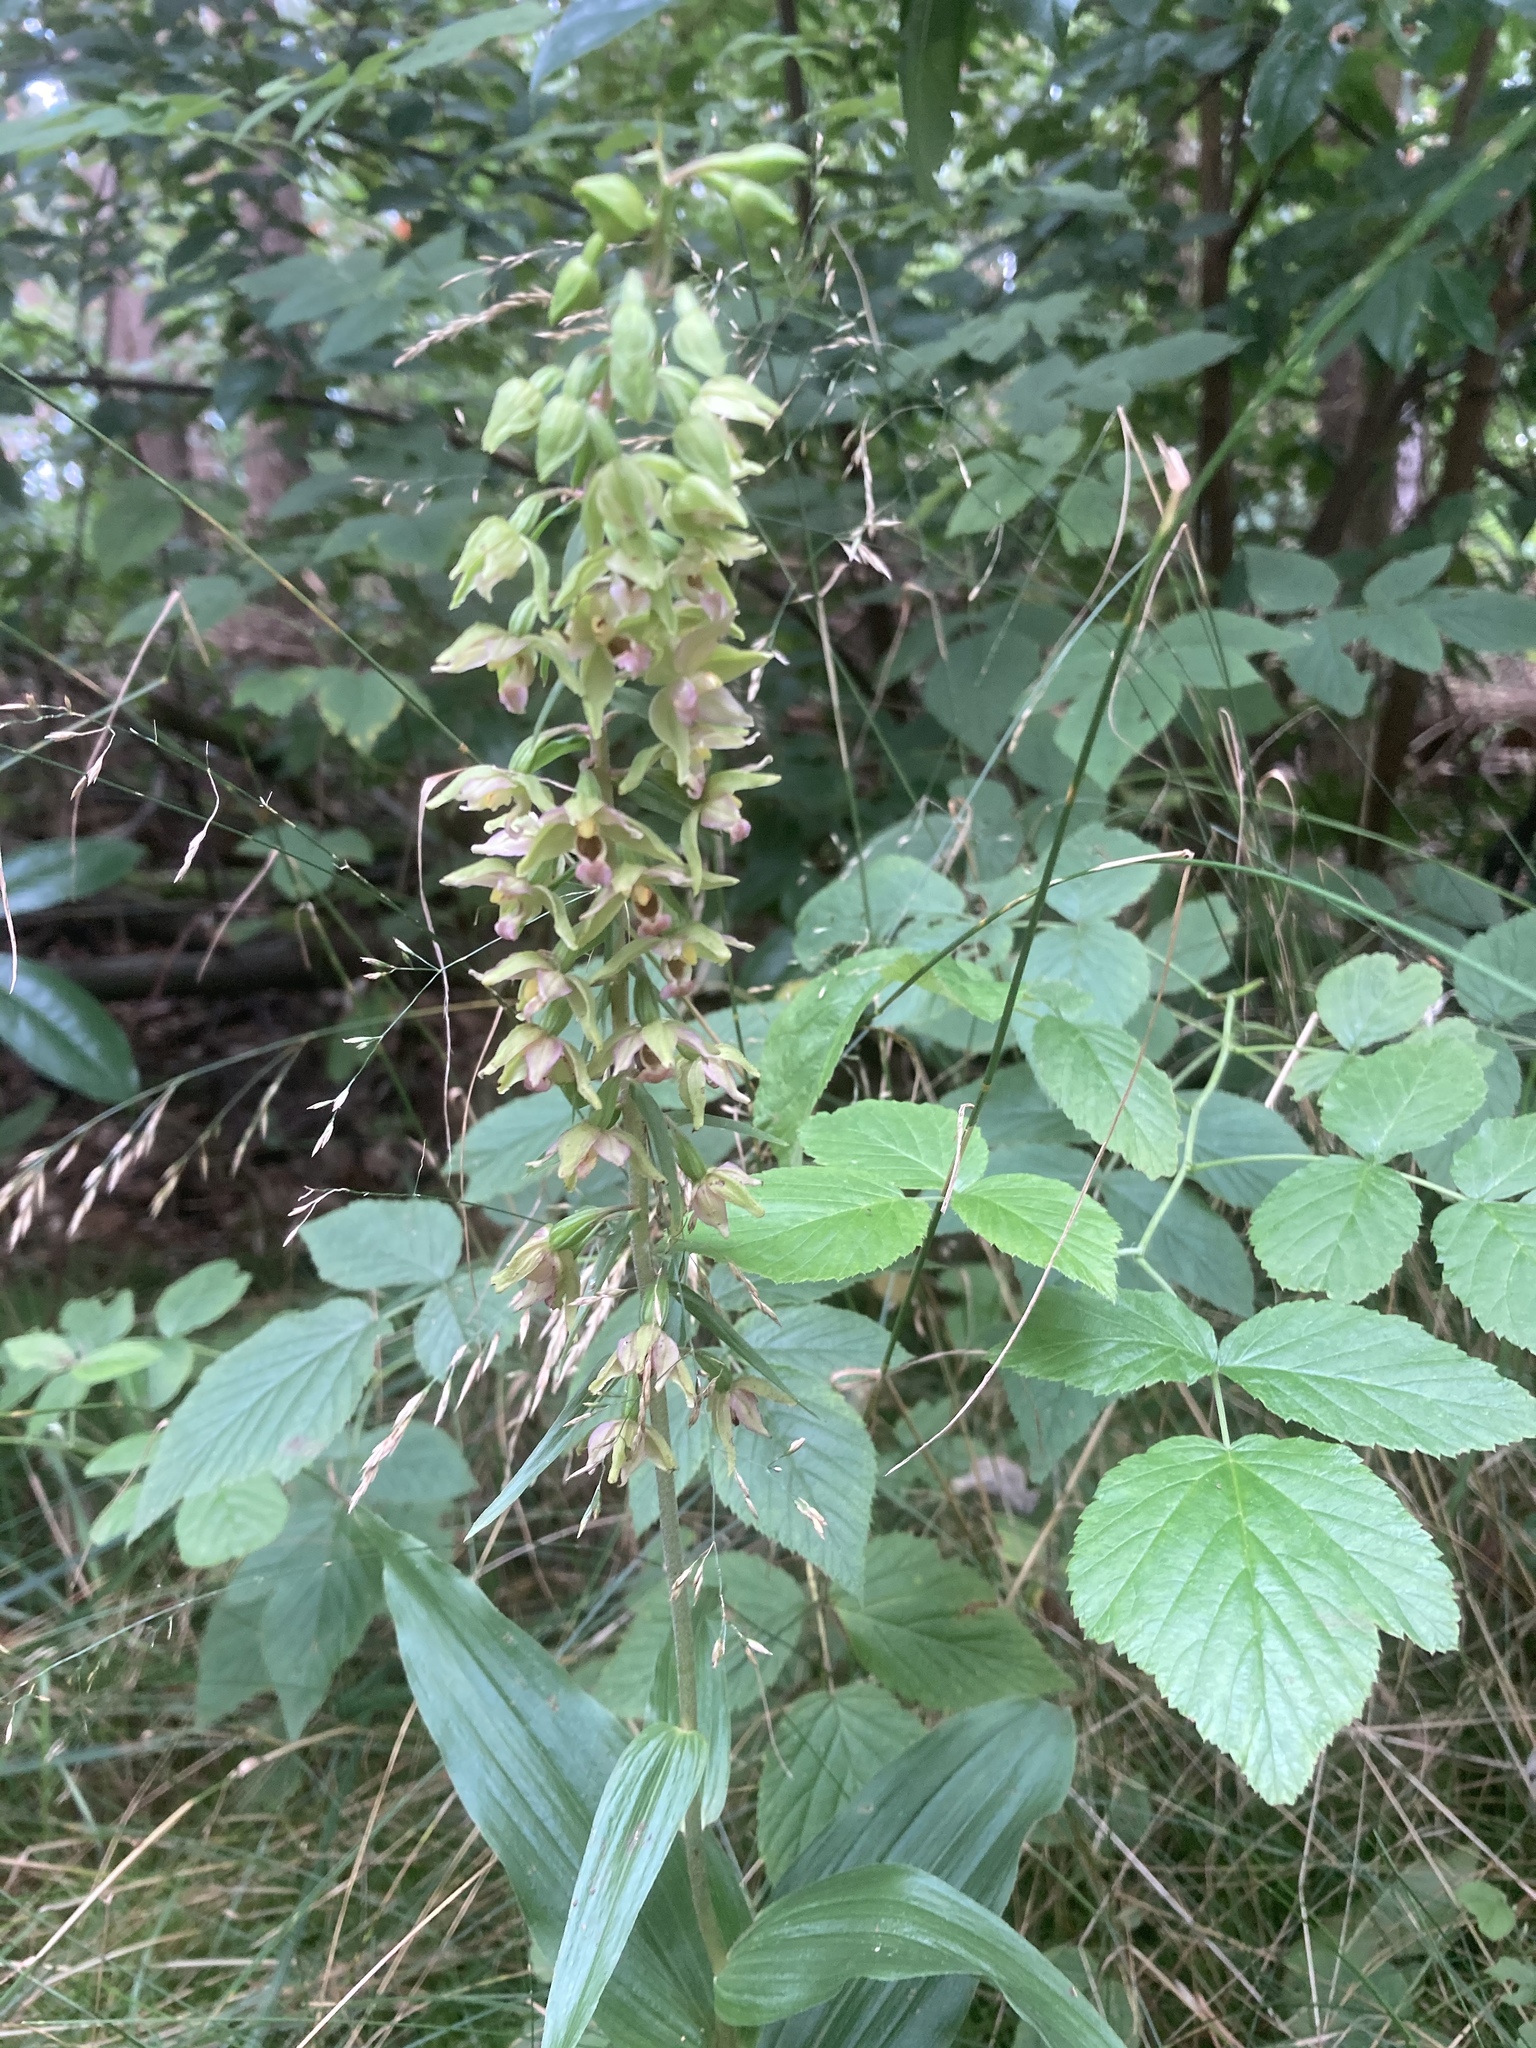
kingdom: Plantae
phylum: Tracheophyta
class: Liliopsida
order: Asparagales
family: Orchidaceae
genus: Epipactis
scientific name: Epipactis helleborine
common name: Broad-leaved helleborine
